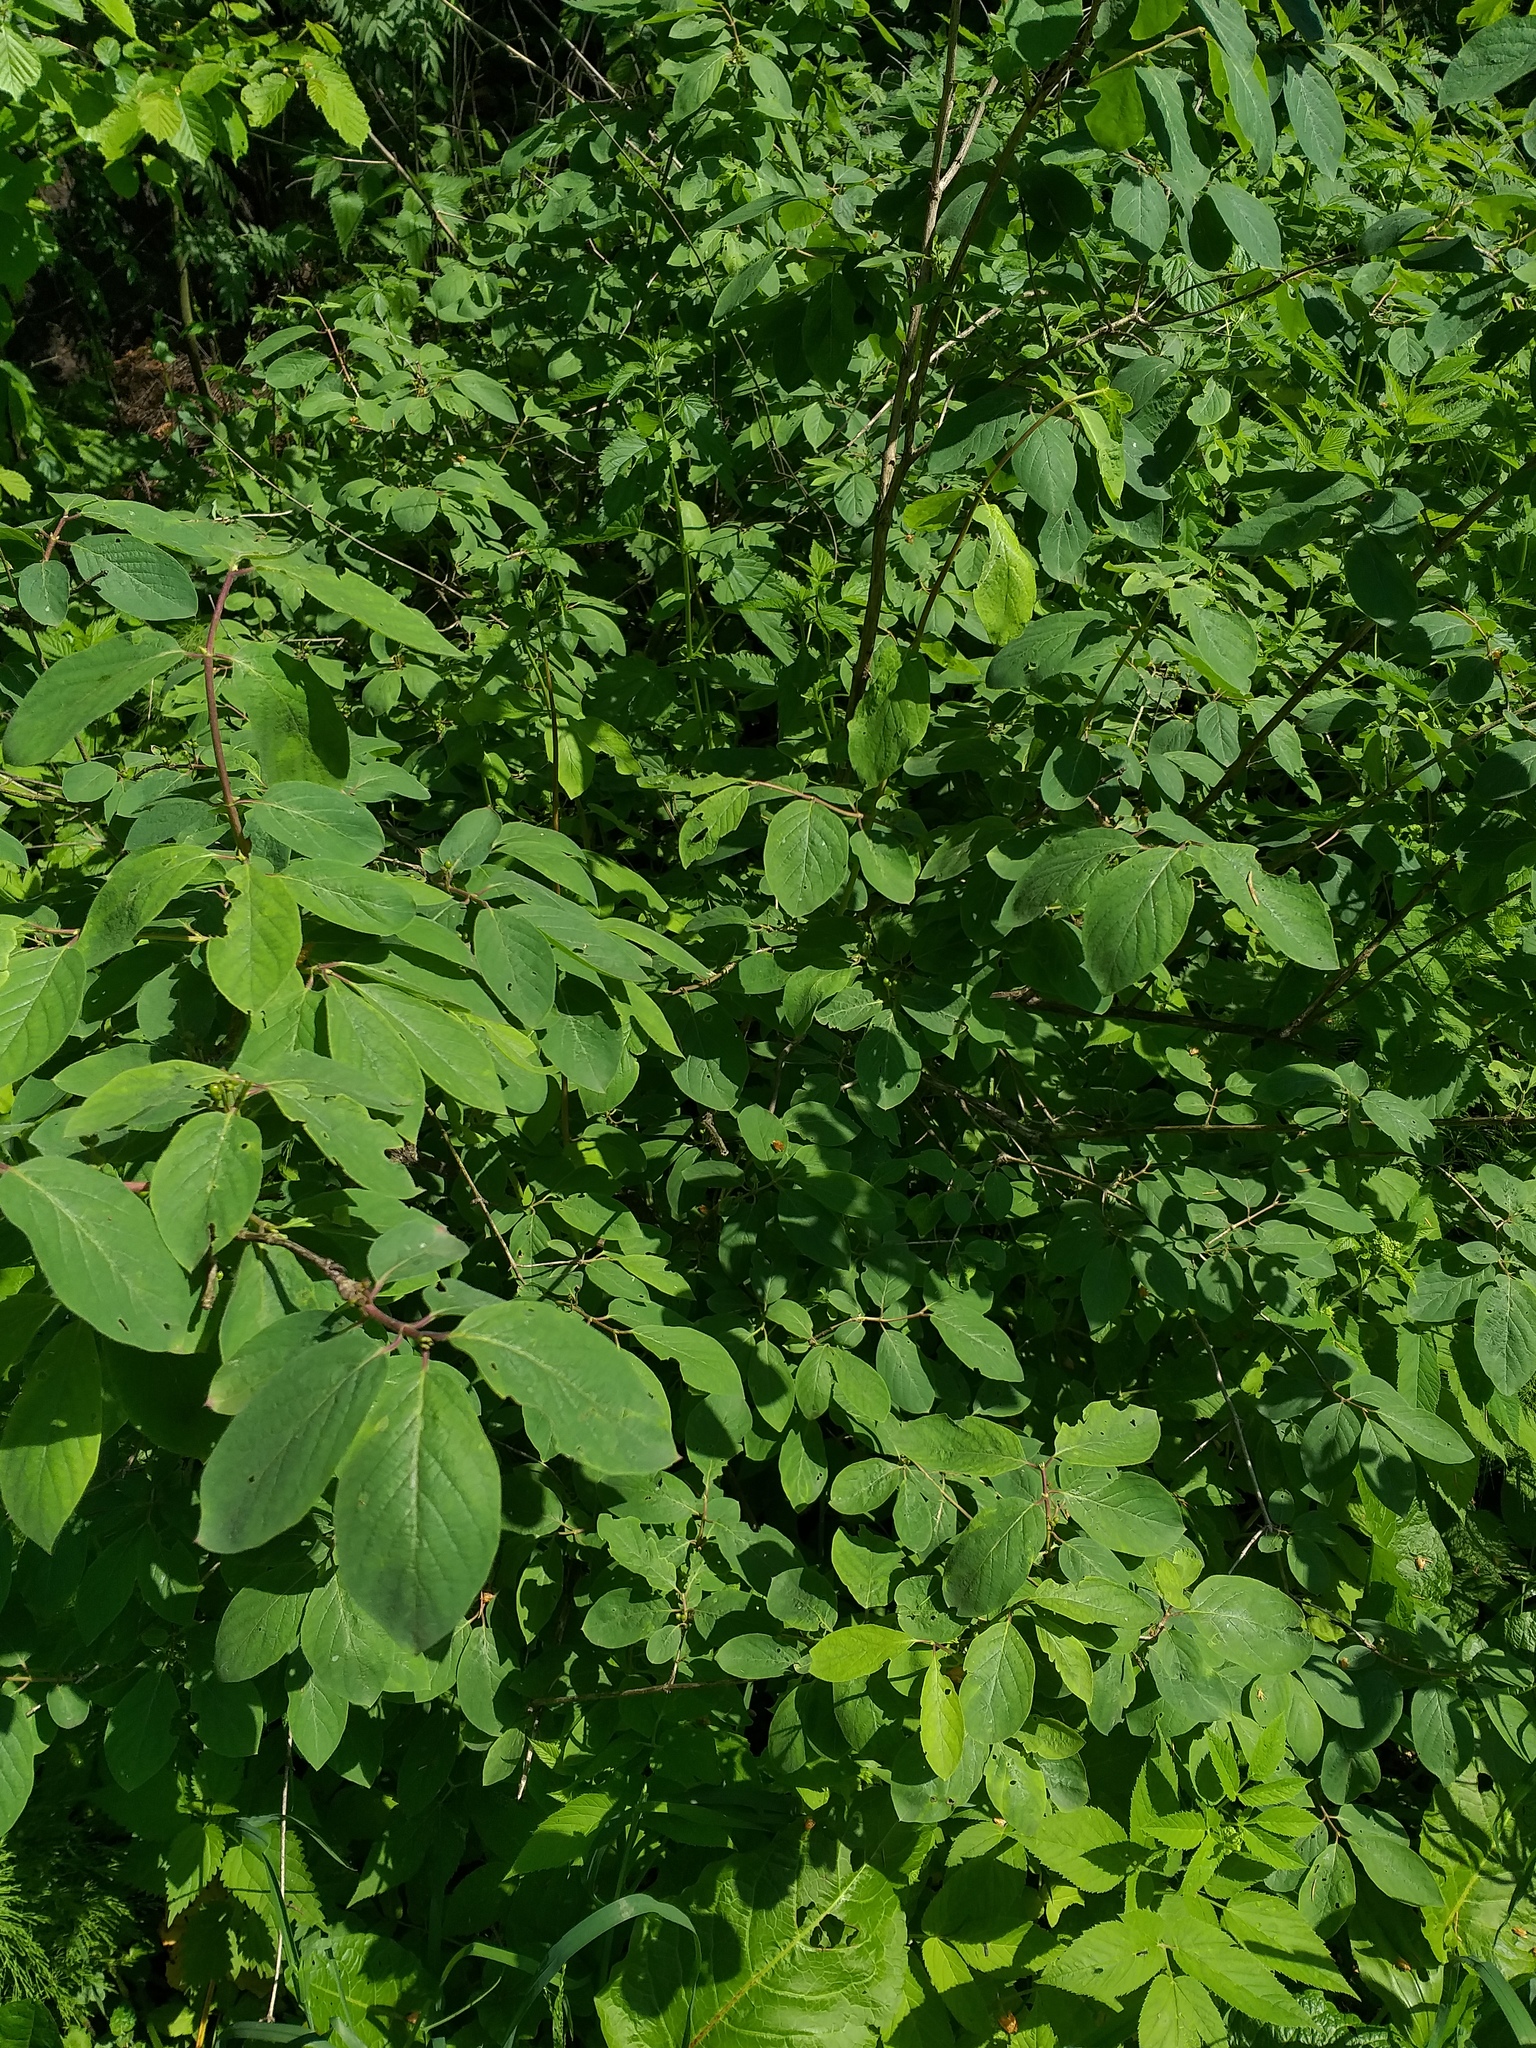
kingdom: Plantae
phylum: Tracheophyta
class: Magnoliopsida
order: Dipsacales
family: Caprifoliaceae
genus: Lonicera
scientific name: Lonicera xylosteum
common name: Fly honeysuckle
